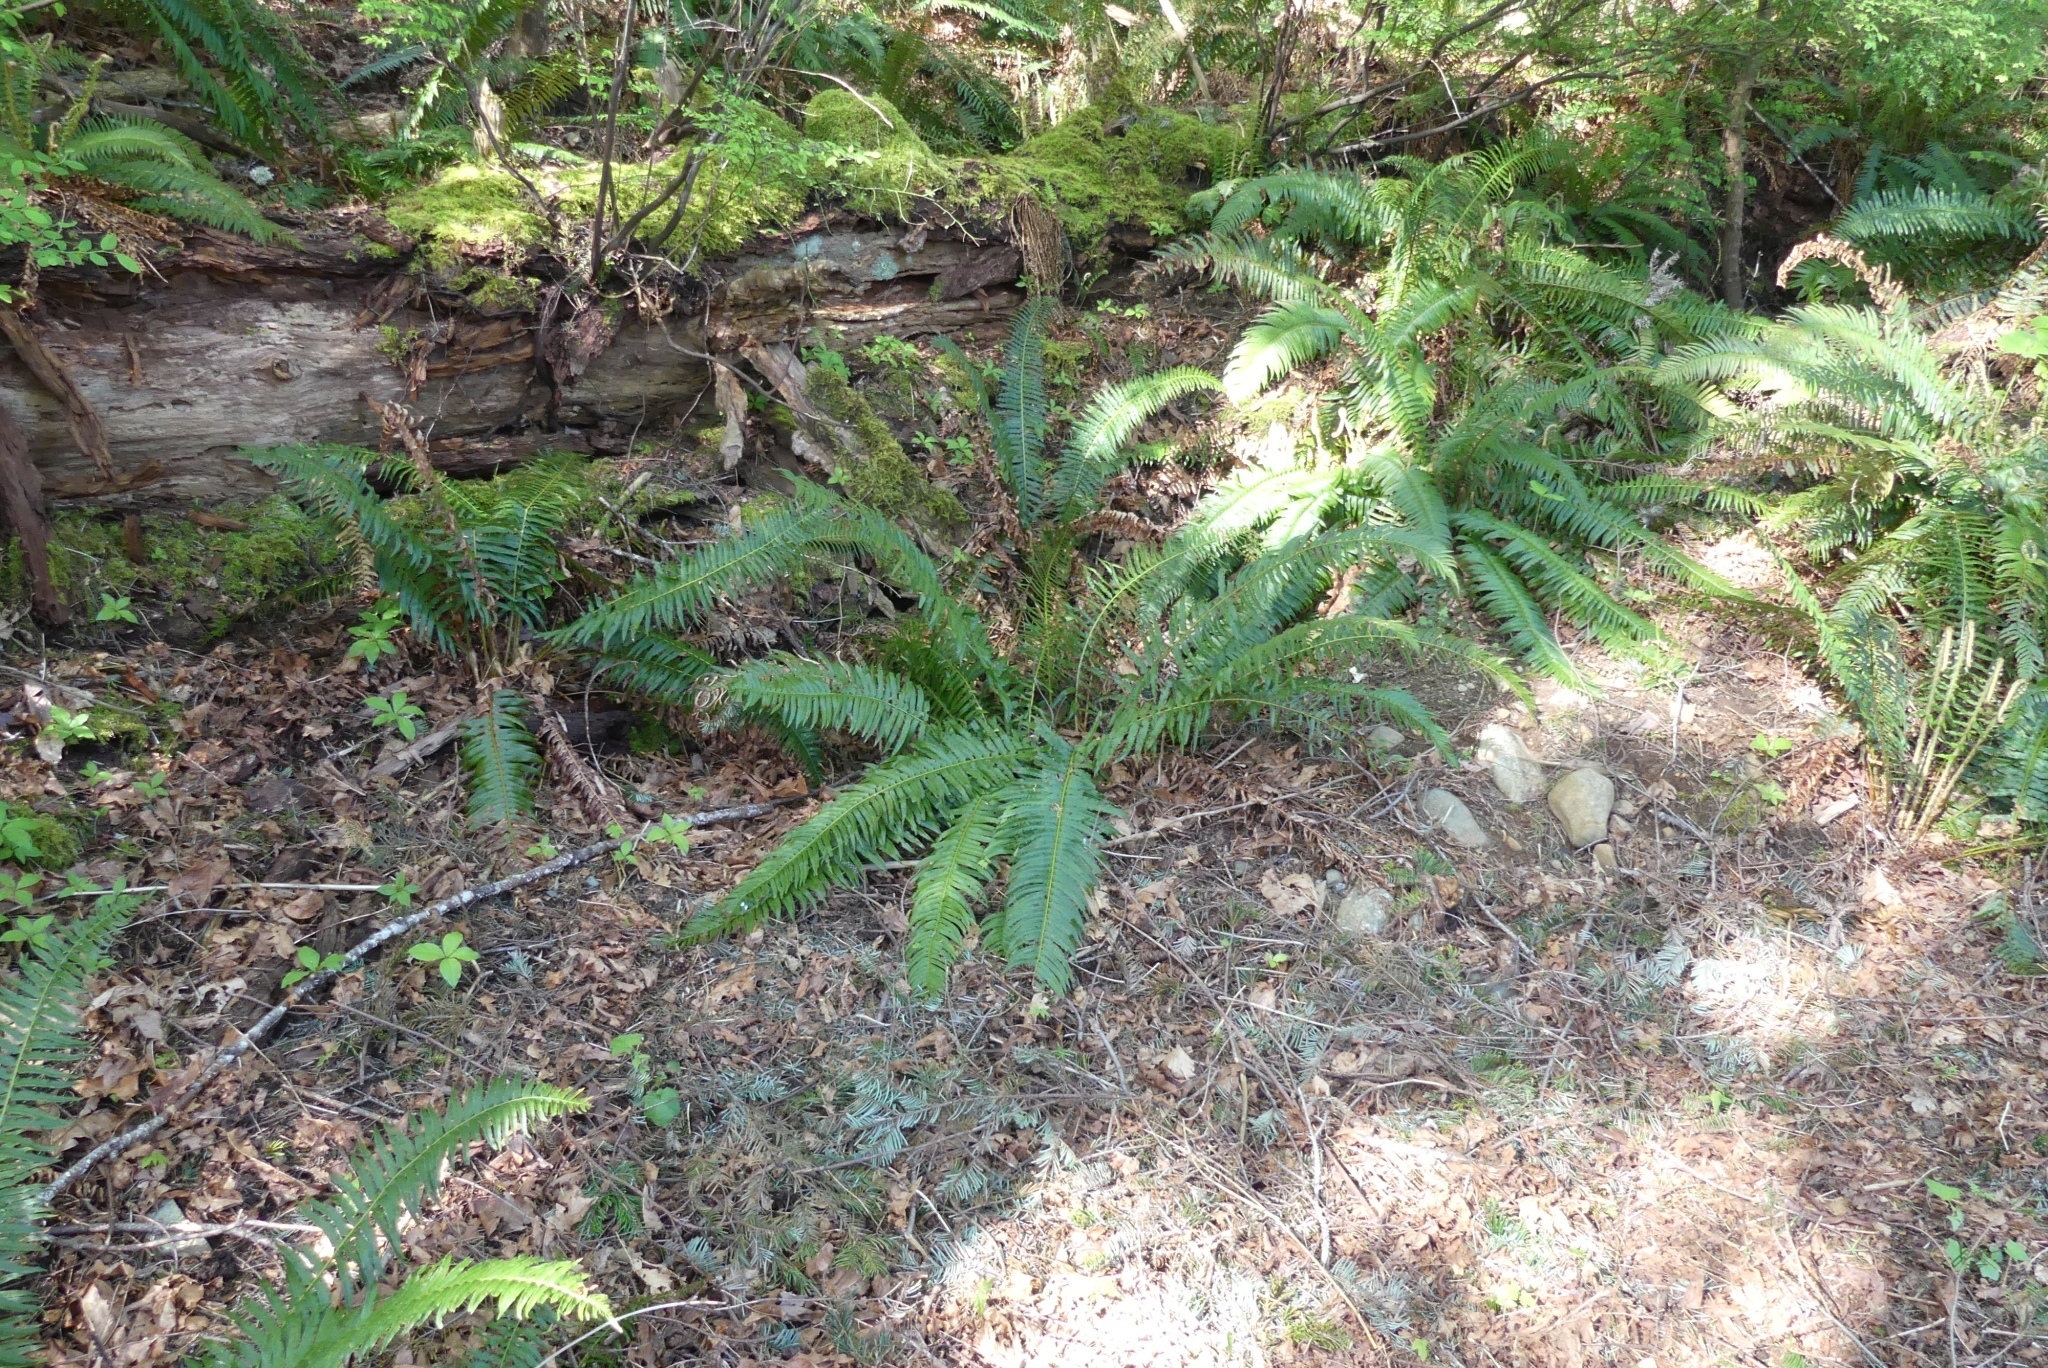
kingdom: Plantae
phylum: Tracheophyta
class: Polypodiopsida
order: Polypodiales
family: Dryopteridaceae
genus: Polystichum
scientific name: Polystichum munitum
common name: Western sword-fern
